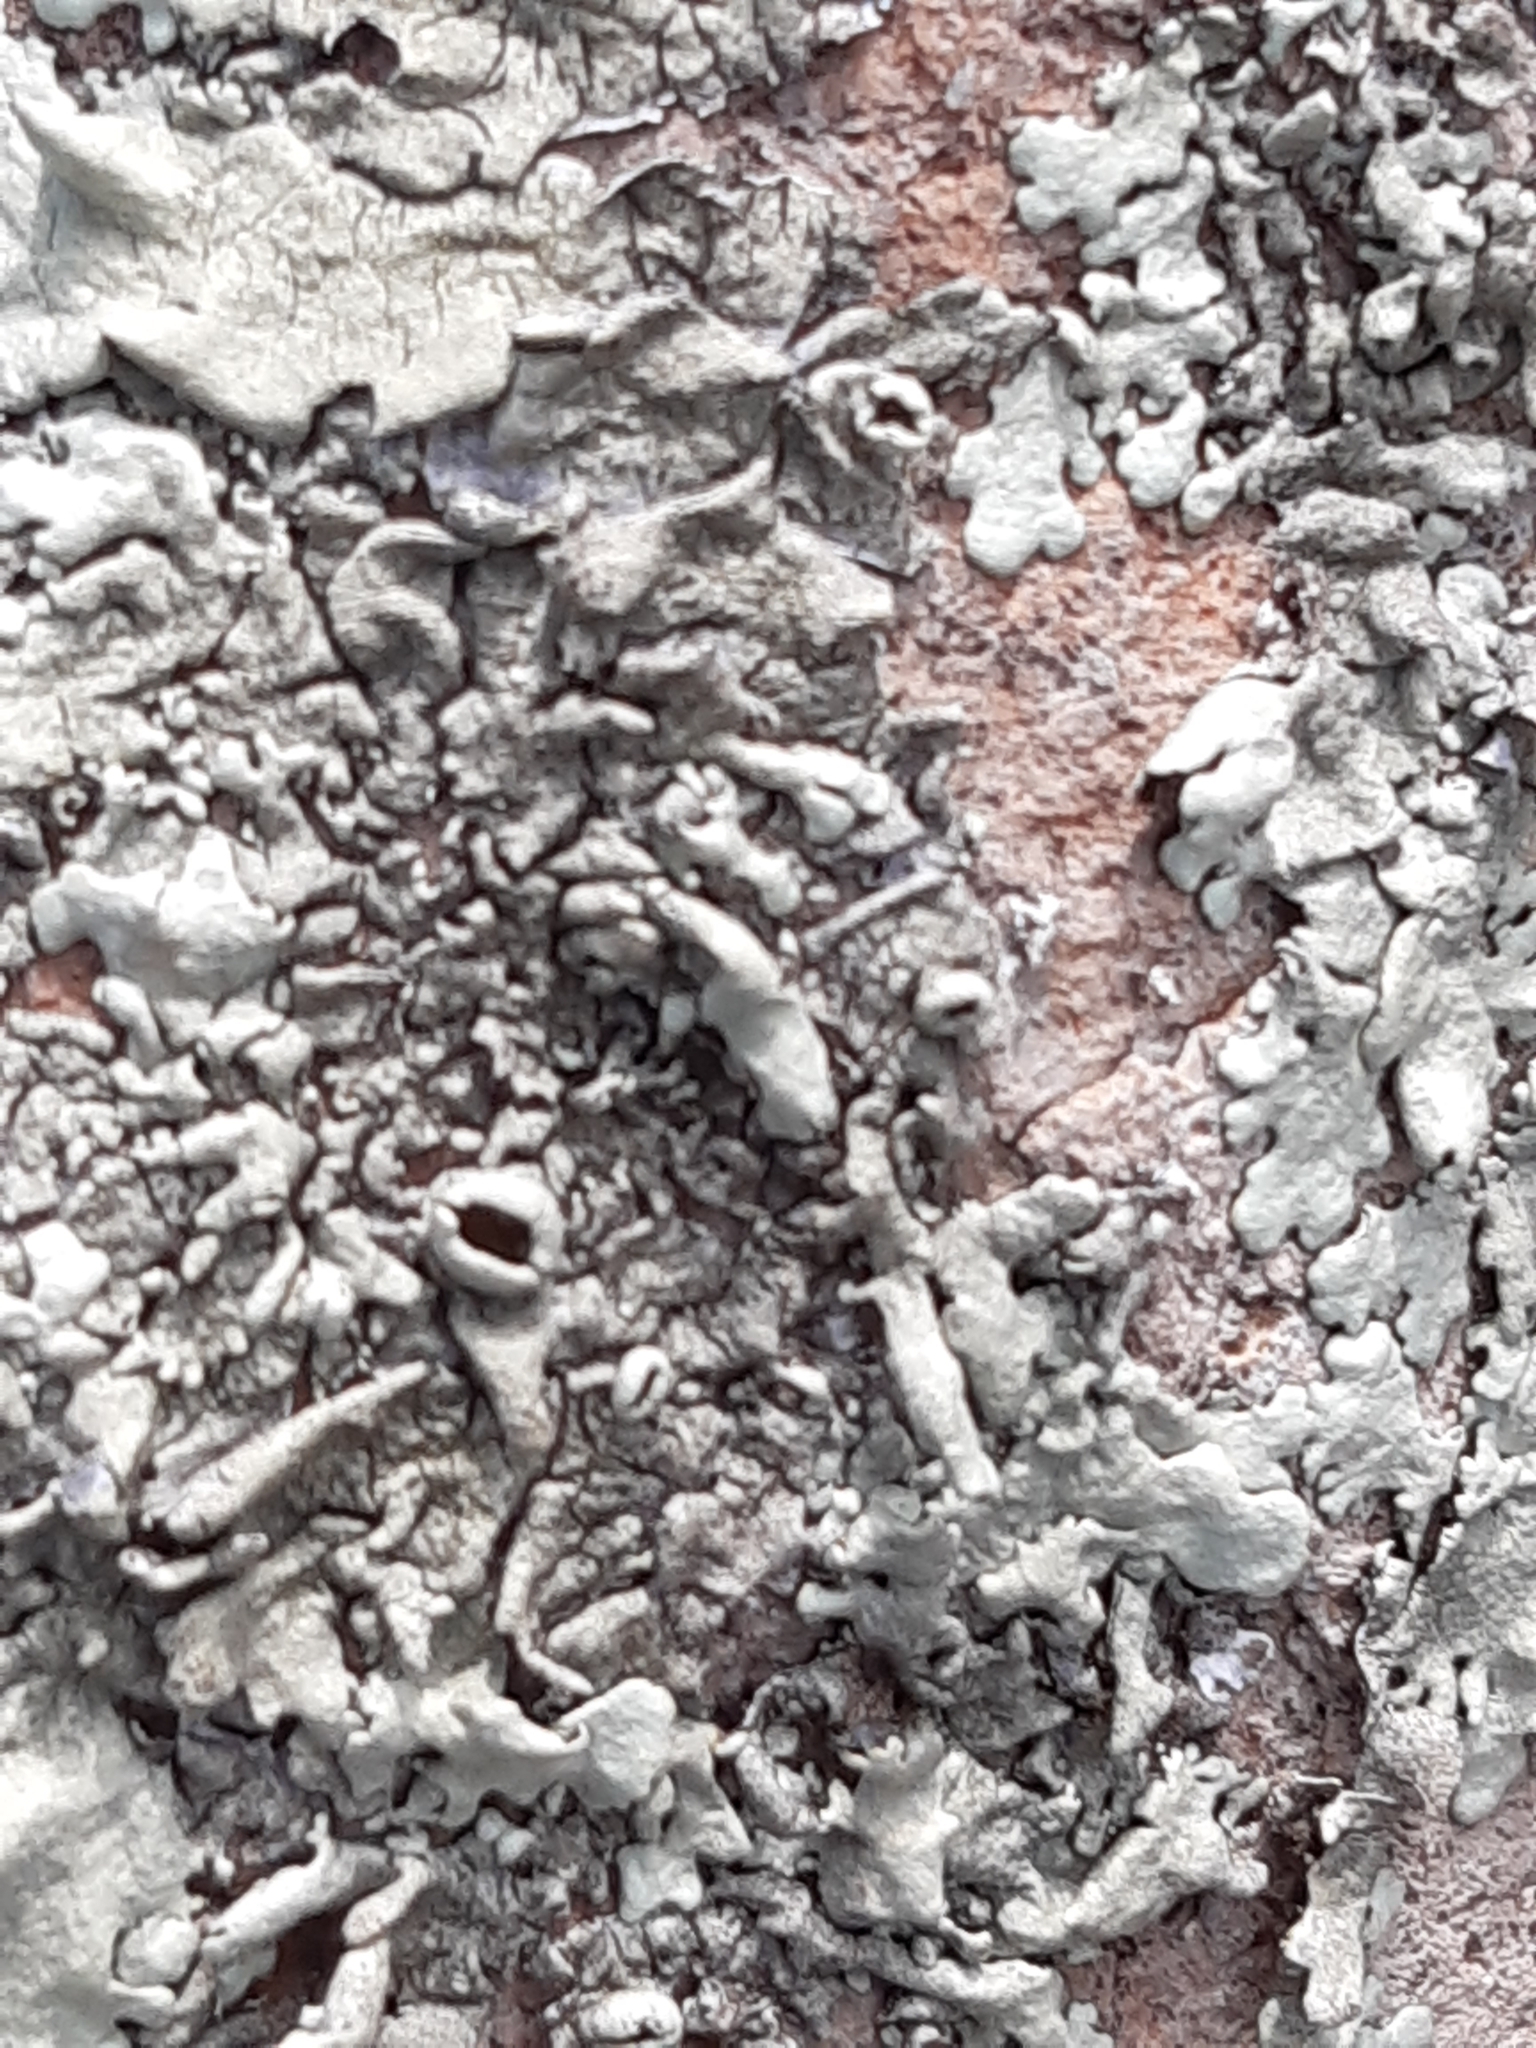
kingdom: Fungi
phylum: Ascomycota
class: Lecanoromycetes
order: Lecanorales
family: Parmeliaceae
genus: Xanthoparmelia
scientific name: Xanthoparmelia cumberlandia
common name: Cumberland rock shield
